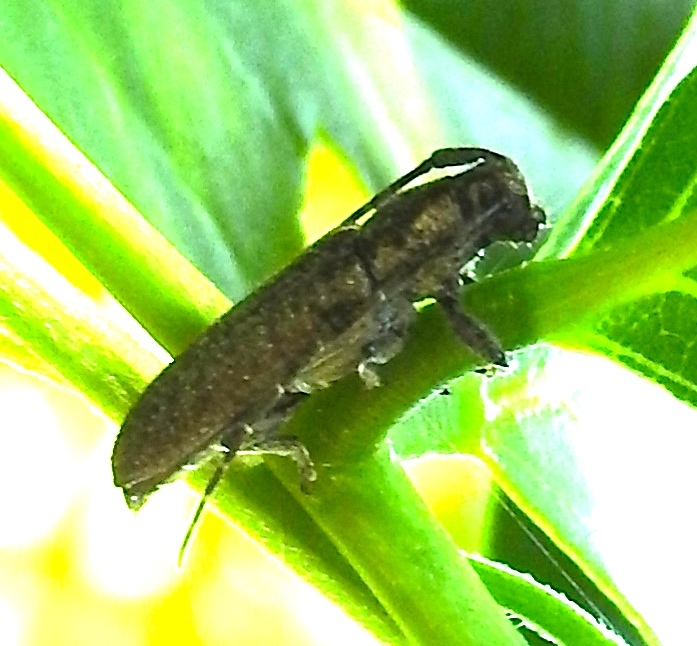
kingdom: Animalia
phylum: Arthropoda
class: Insecta
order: Coleoptera
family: Cerambycidae
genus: Ataxia
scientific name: Ataxia
